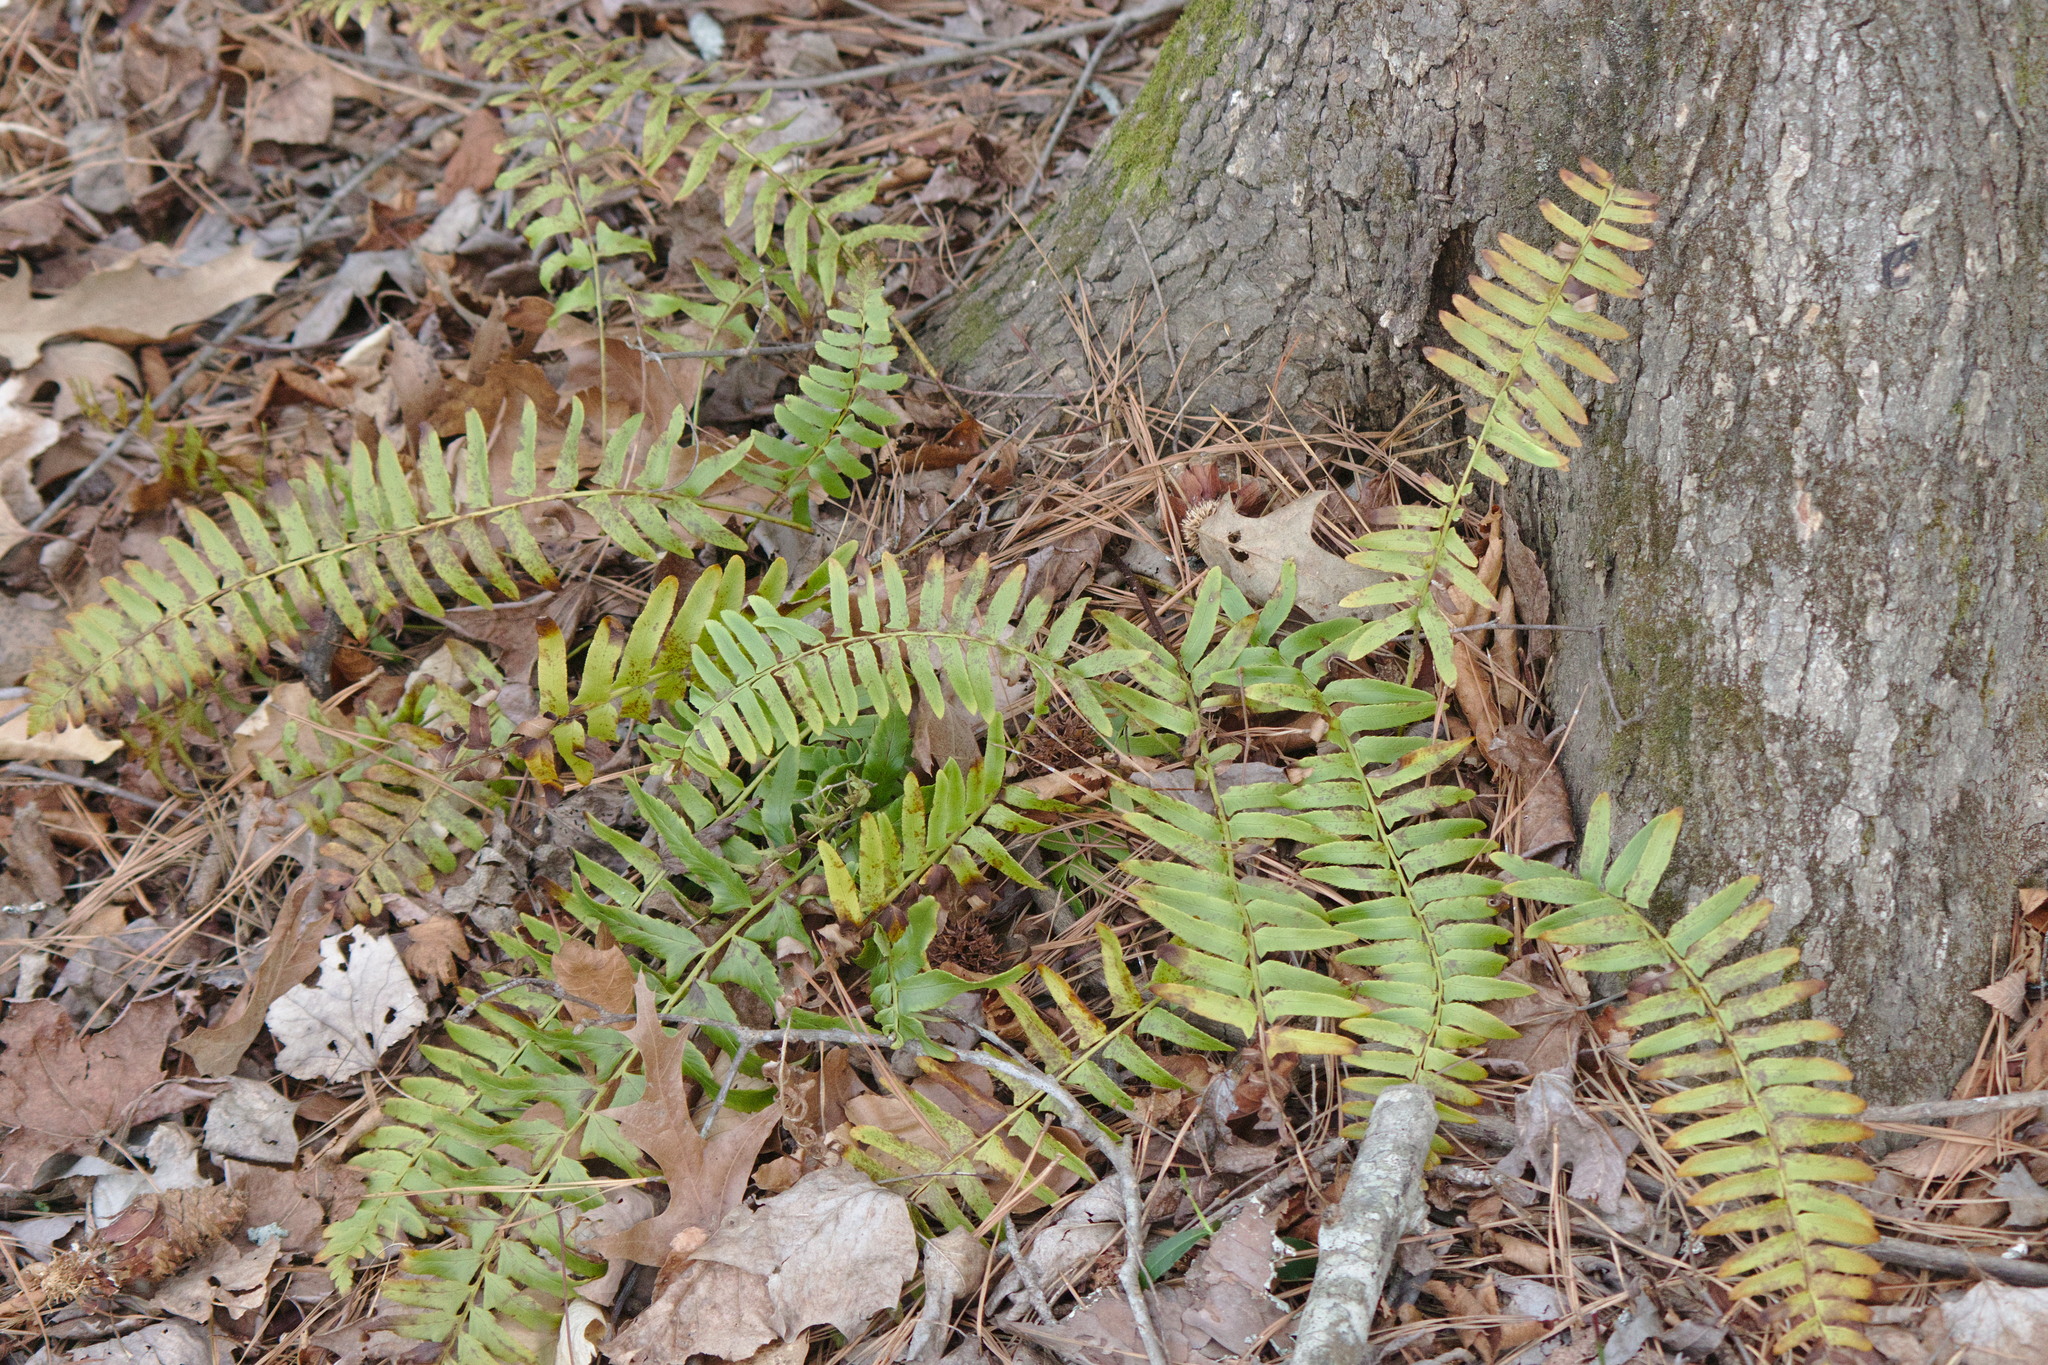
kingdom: Plantae
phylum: Tracheophyta
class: Polypodiopsida
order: Polypodiales
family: Dryopteridaceae
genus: Polystichum
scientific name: Polystichum acrostichoides
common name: Christmas fern
